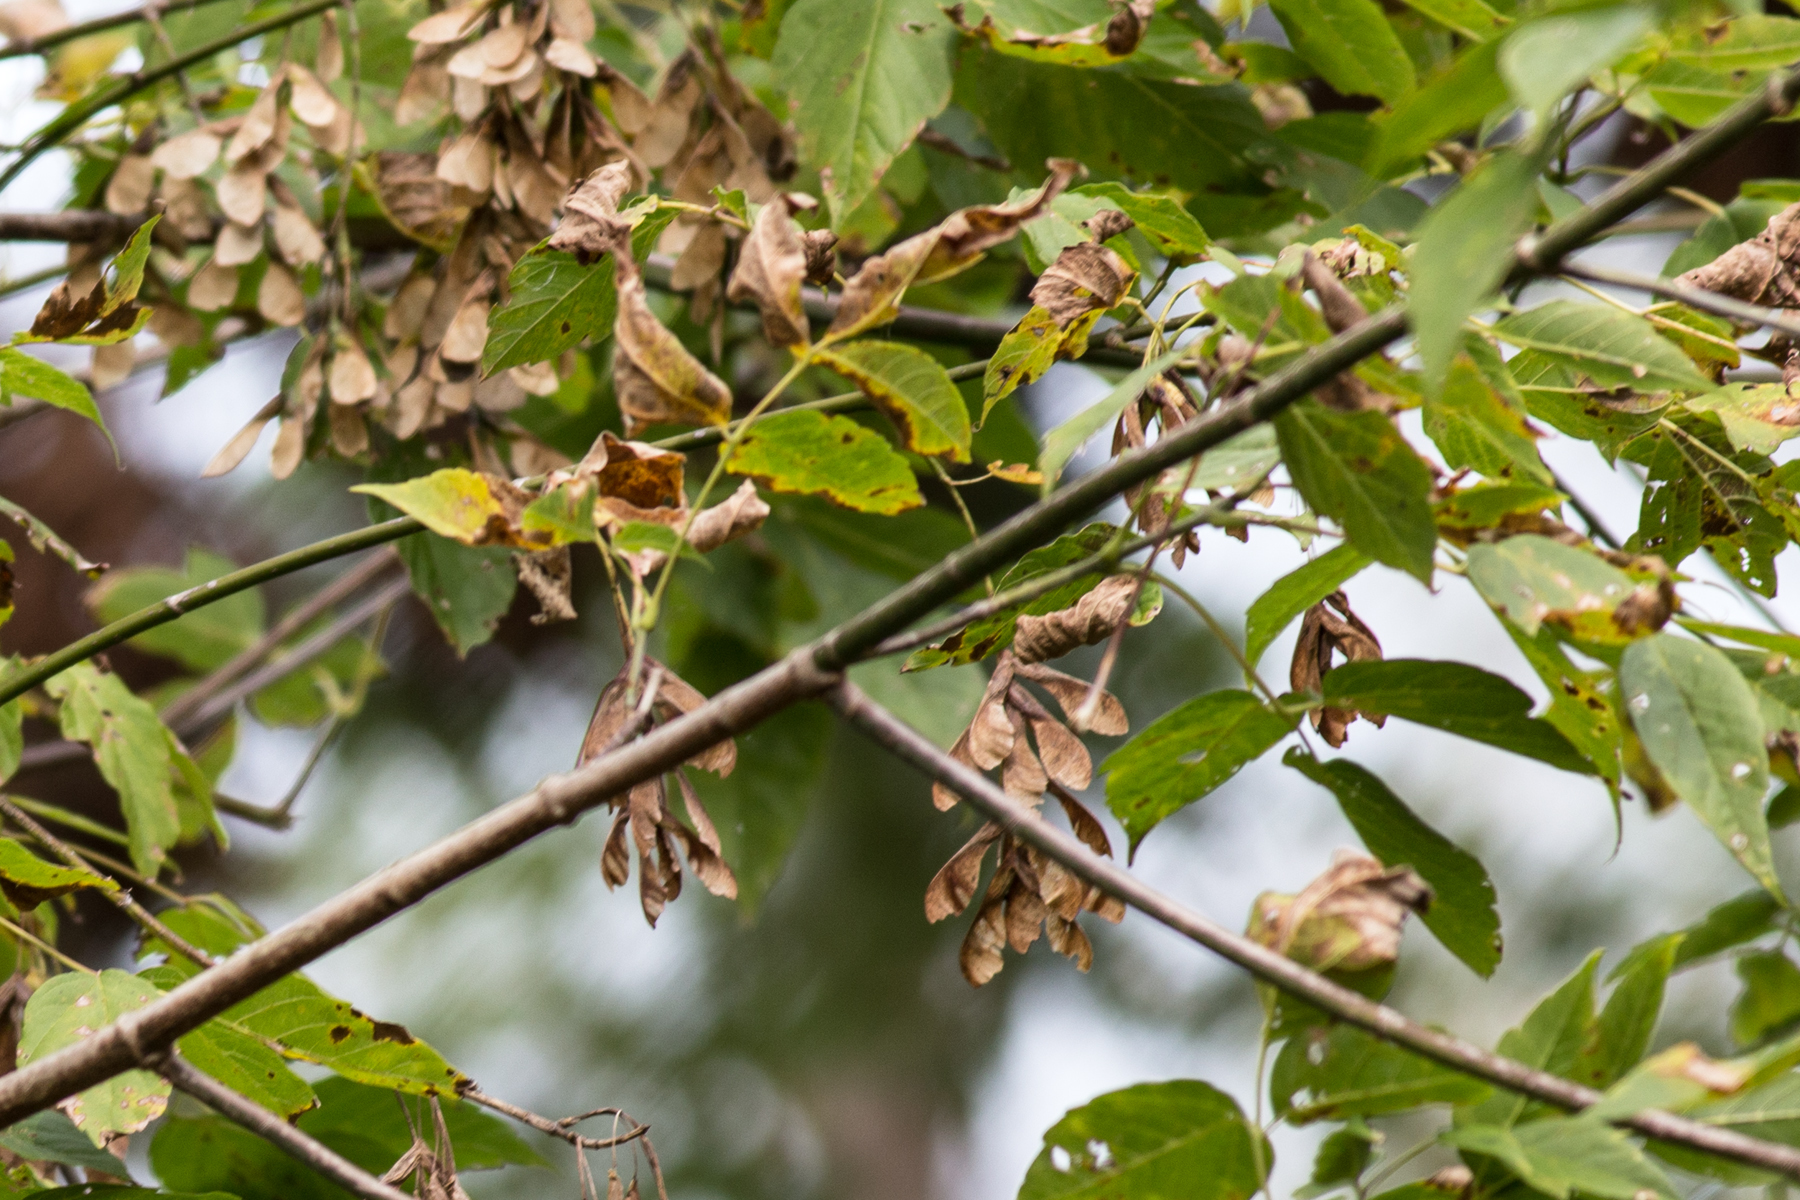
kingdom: Plantae
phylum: Tracheophyta
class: Magnoliopsida
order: Sapindales
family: Sapindaceae
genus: Acer
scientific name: Acer negundo
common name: Ashleaf maple
